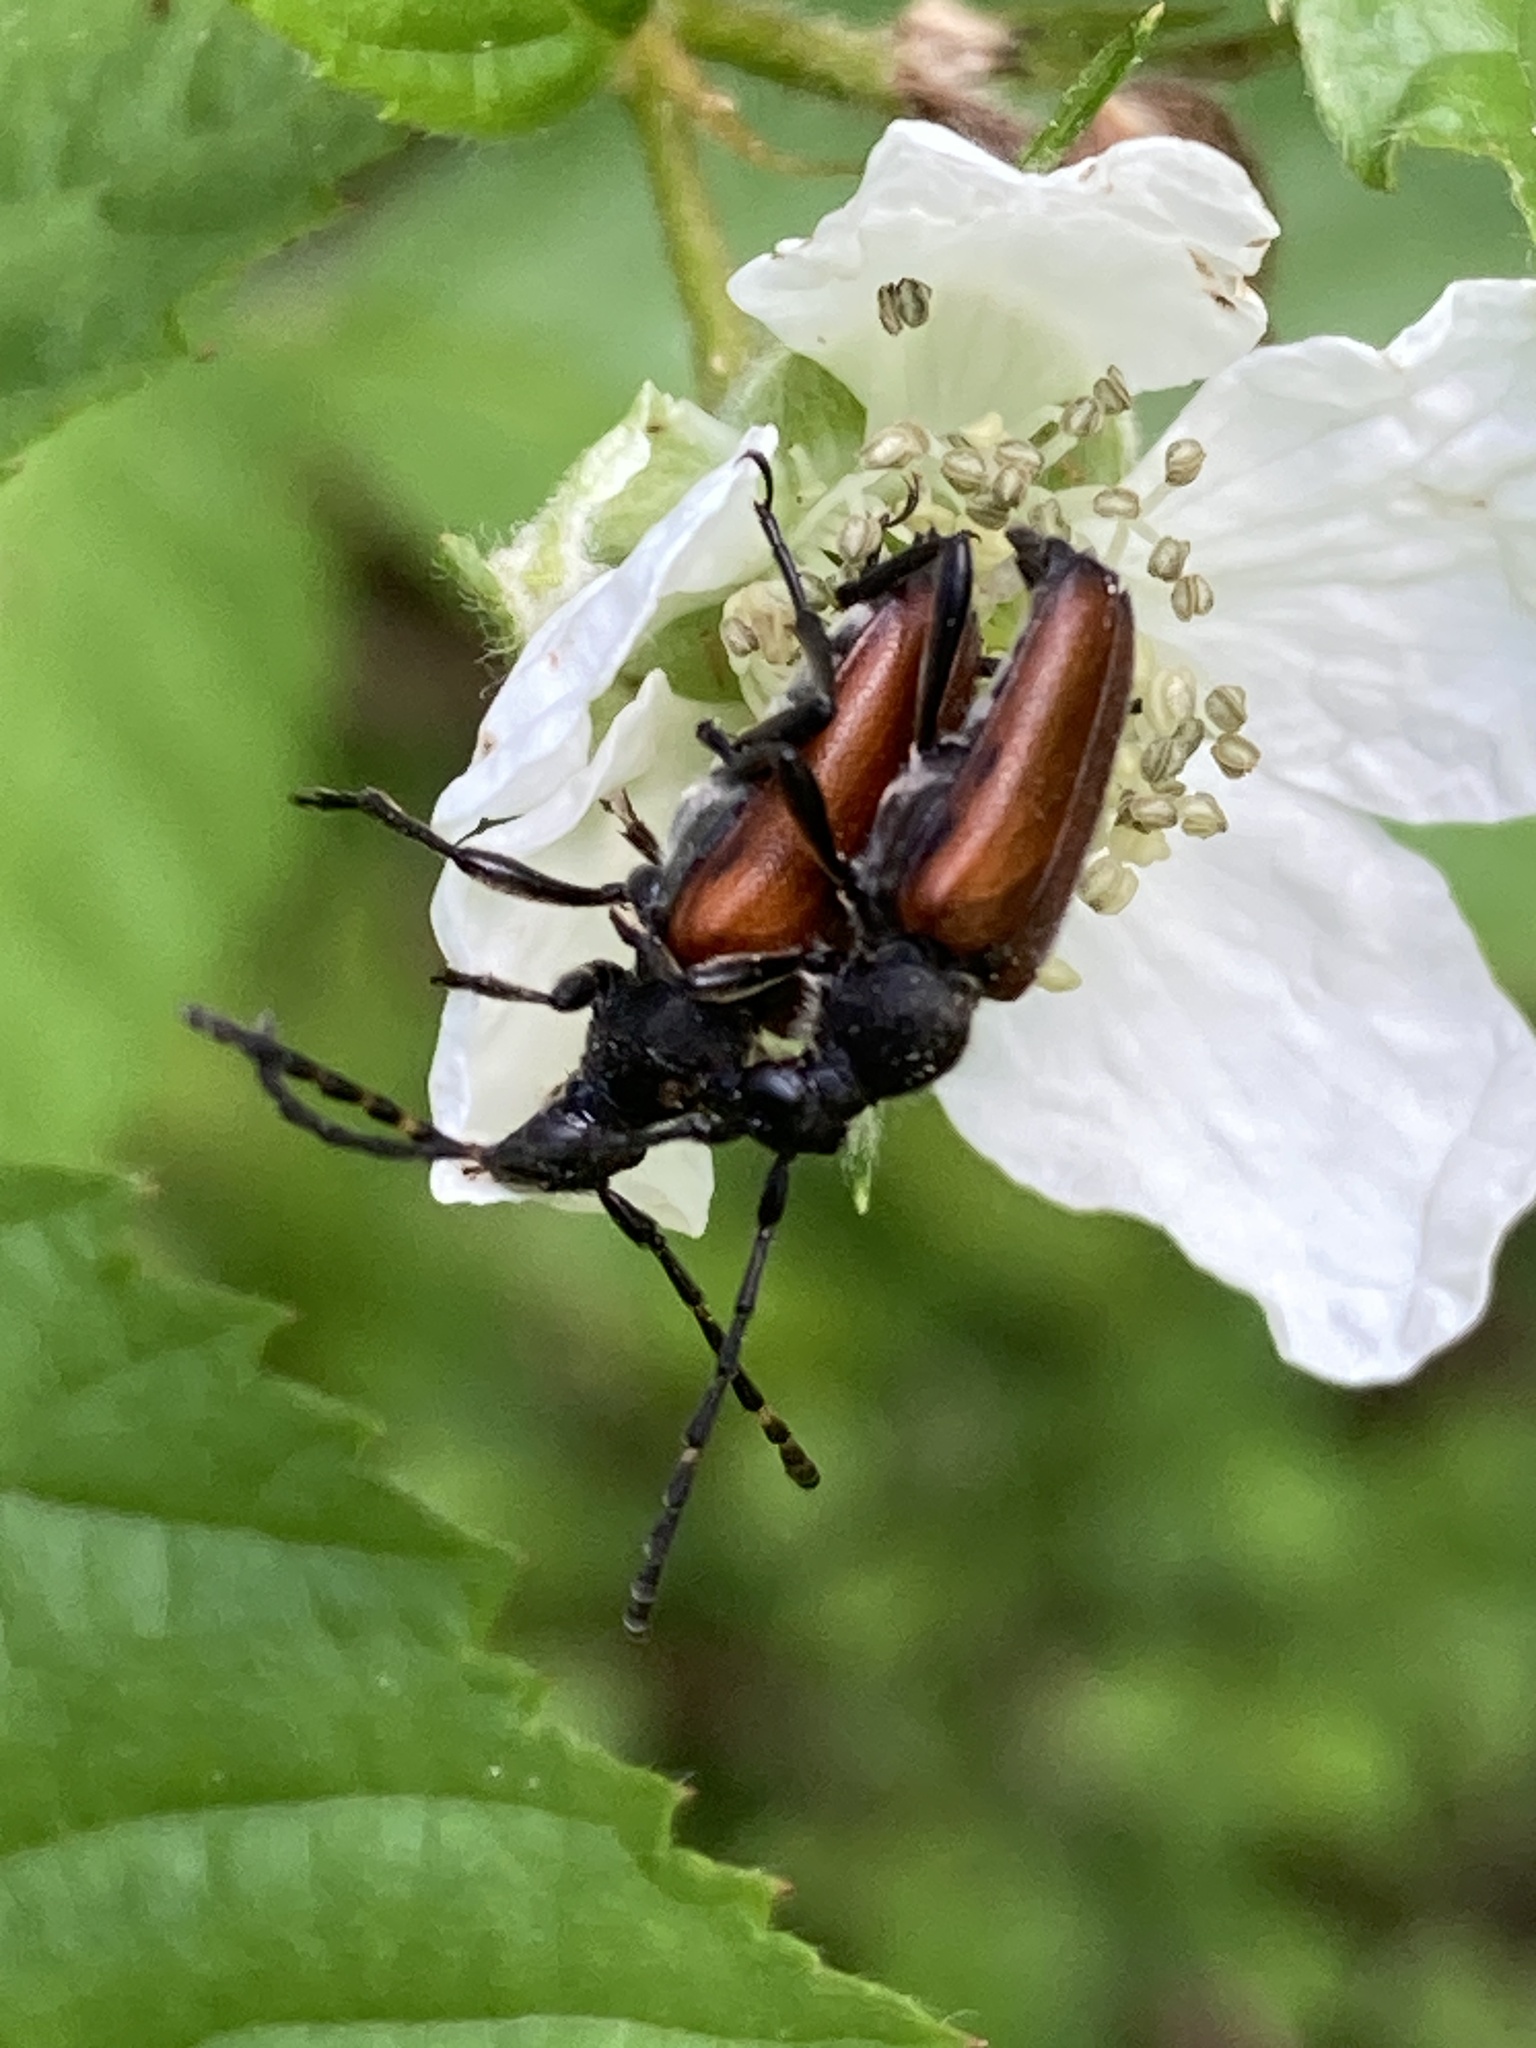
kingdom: Animalia
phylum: Arthropoda
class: Insecta
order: Coleoptera
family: Cerambycidae
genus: Paracorymbia
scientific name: Paracorymbia maculicornis
